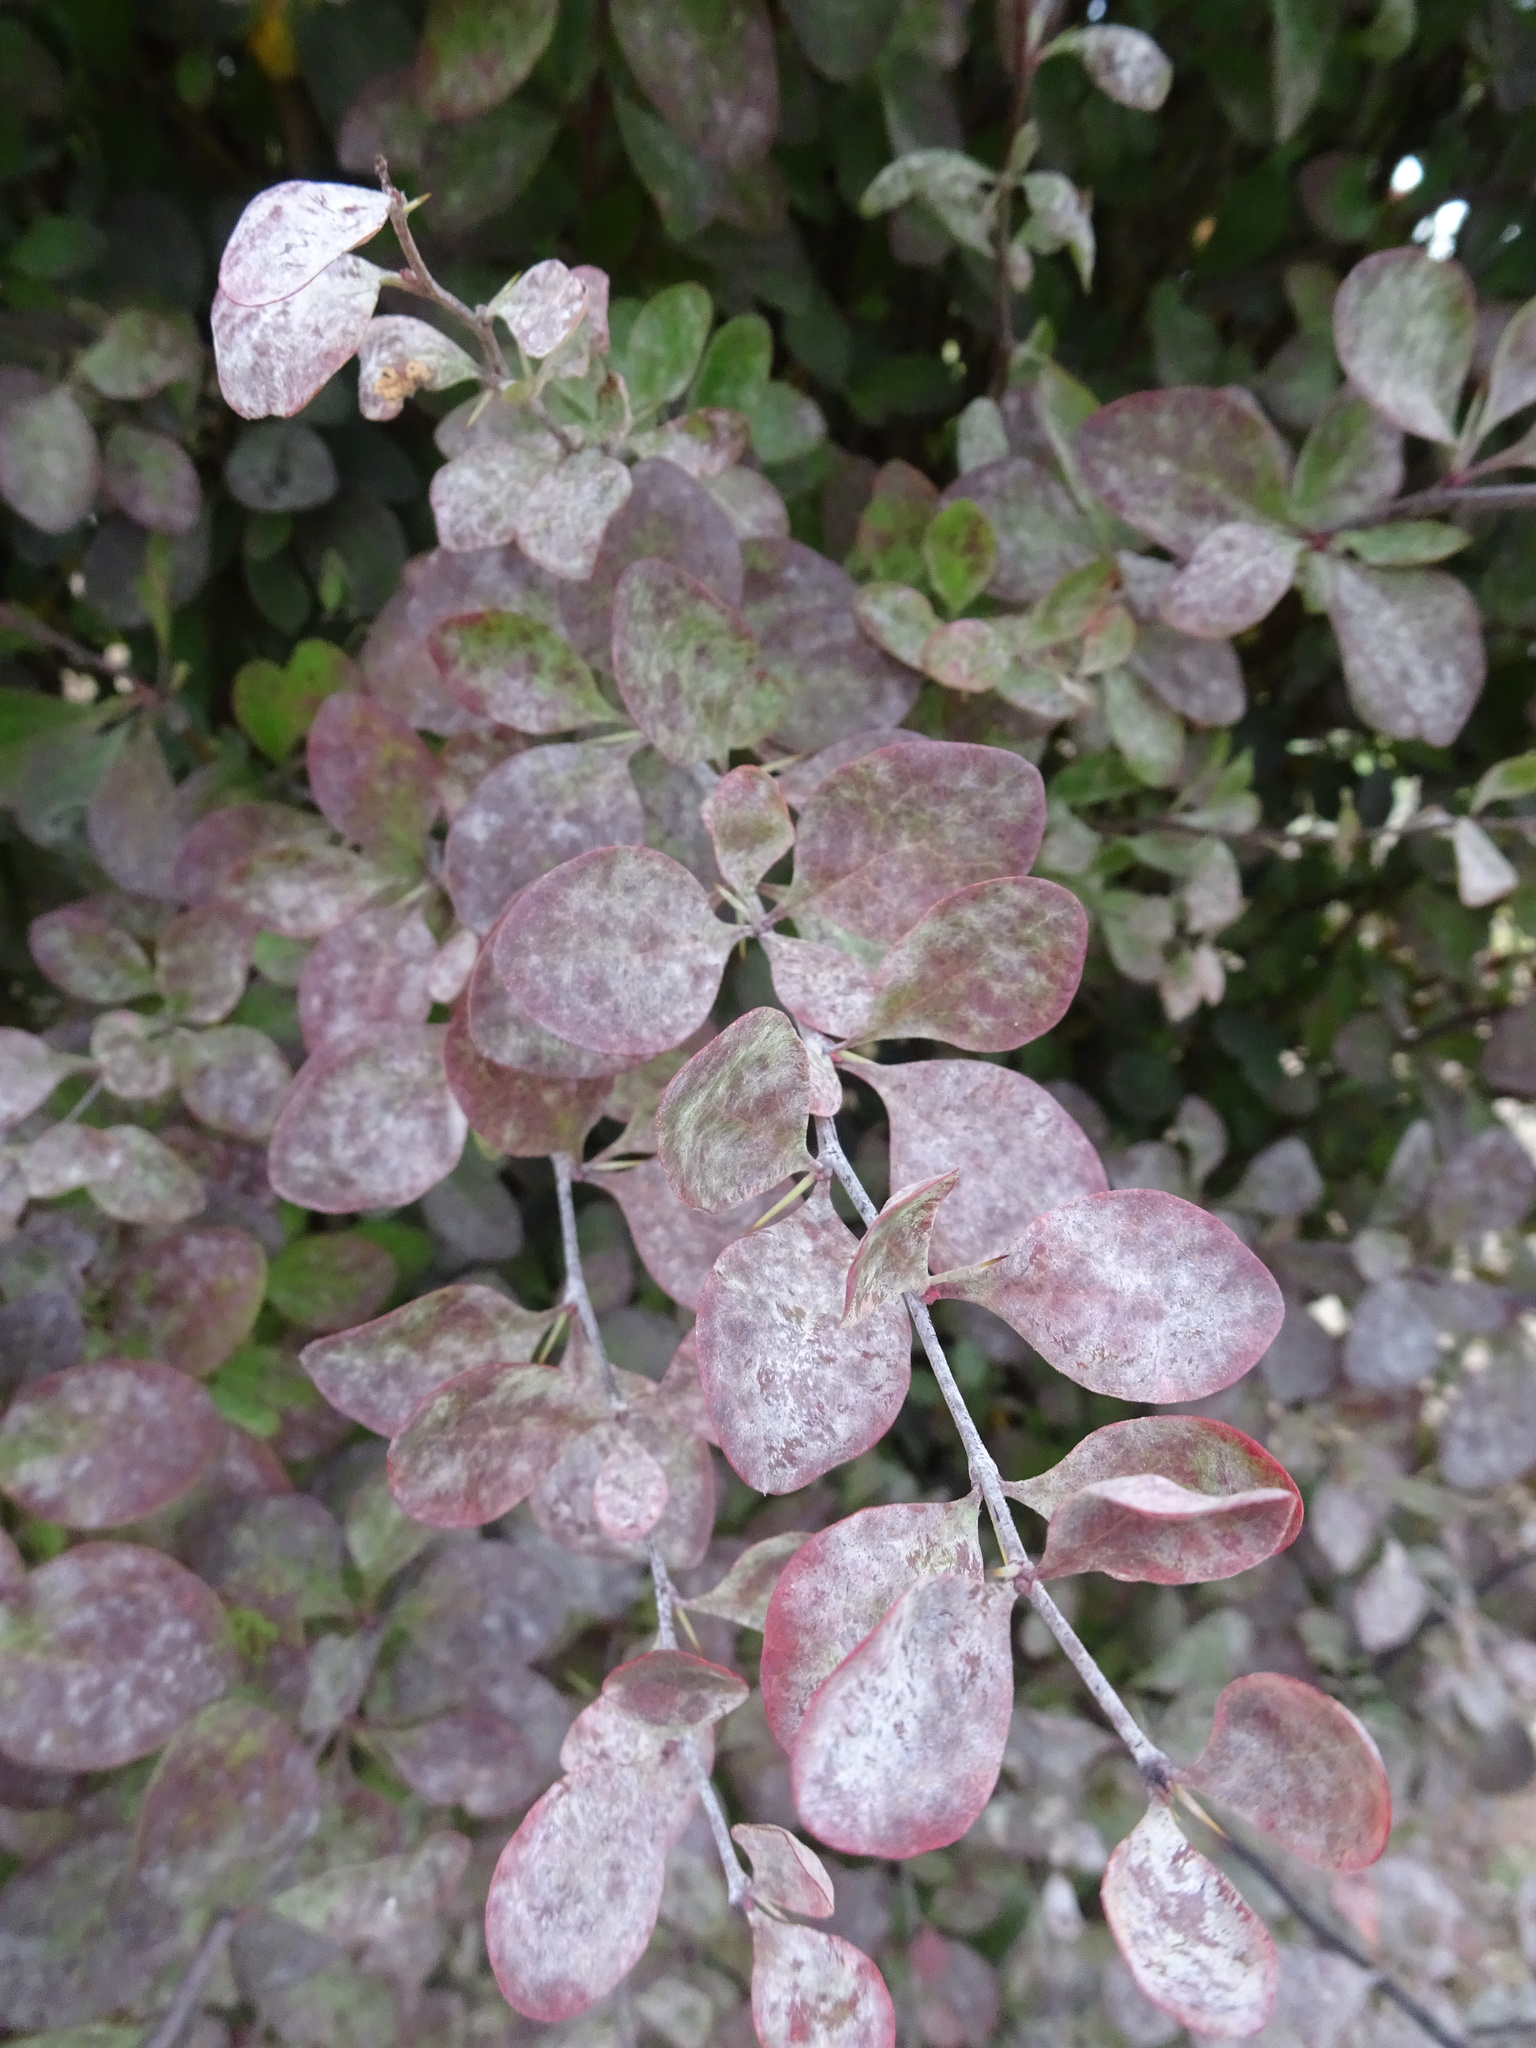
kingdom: Plantae
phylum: Tracheophyta
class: Magnoliopsida
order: Ranunculales
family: Berberidaceae
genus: Berberis
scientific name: Berberis thunbergii
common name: Japanese barberry
